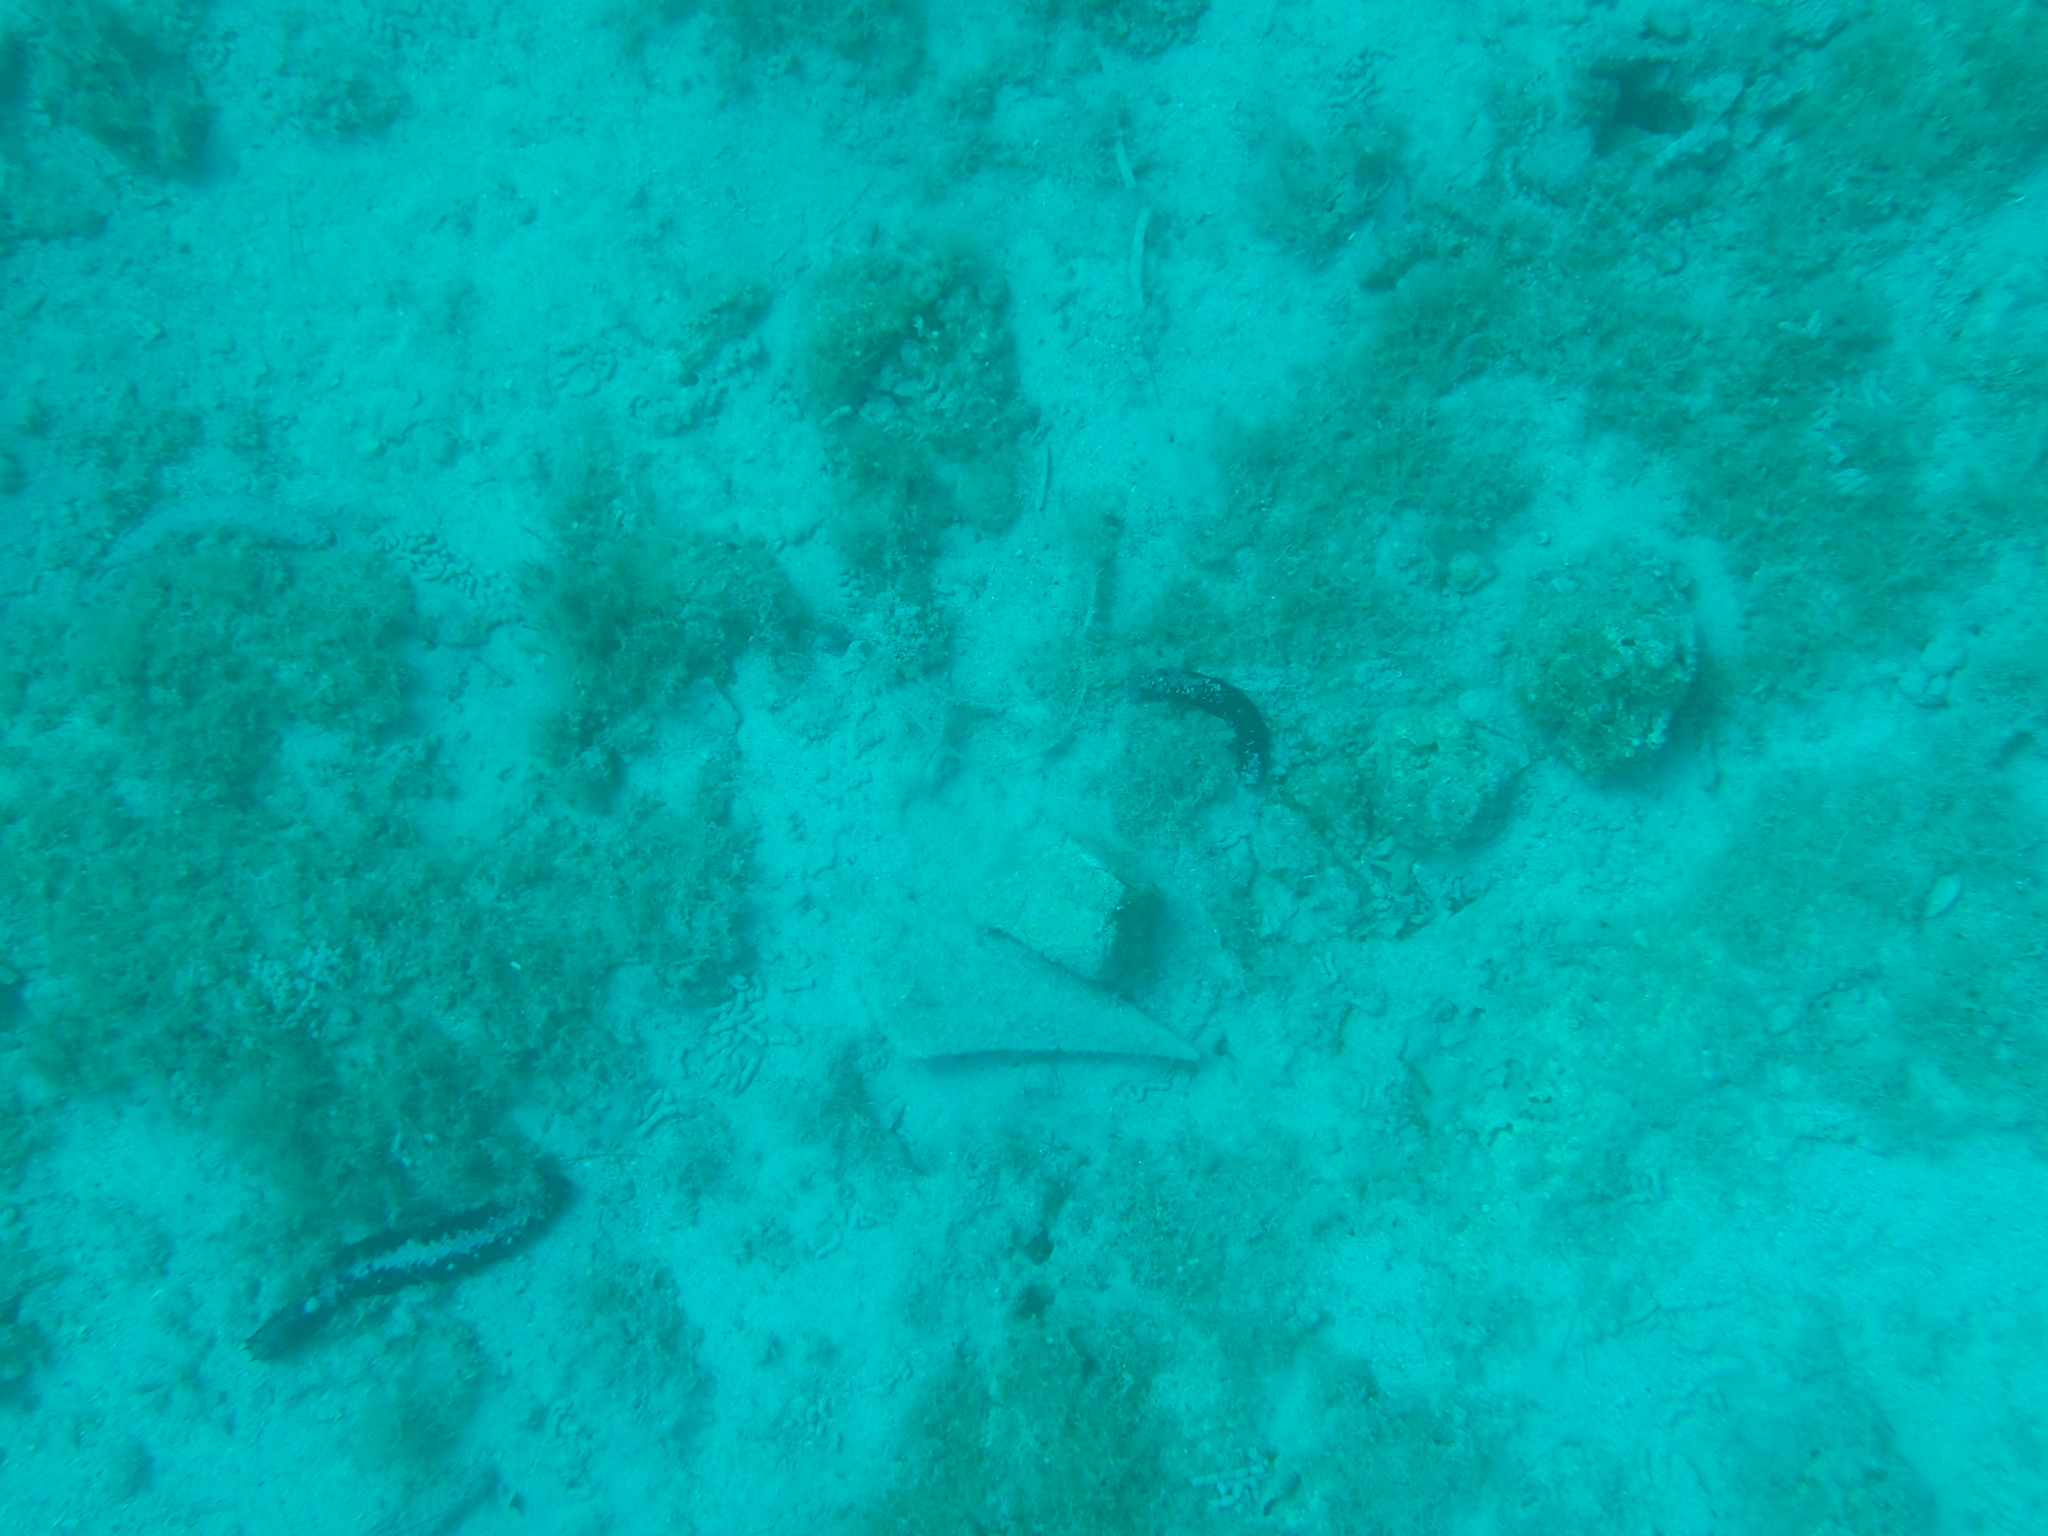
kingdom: Animalia
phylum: Mollusca
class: Bivalvia
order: Ostreida
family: Pinnidae
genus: Pinna
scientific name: Pinna nobilis
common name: Fan mussel
